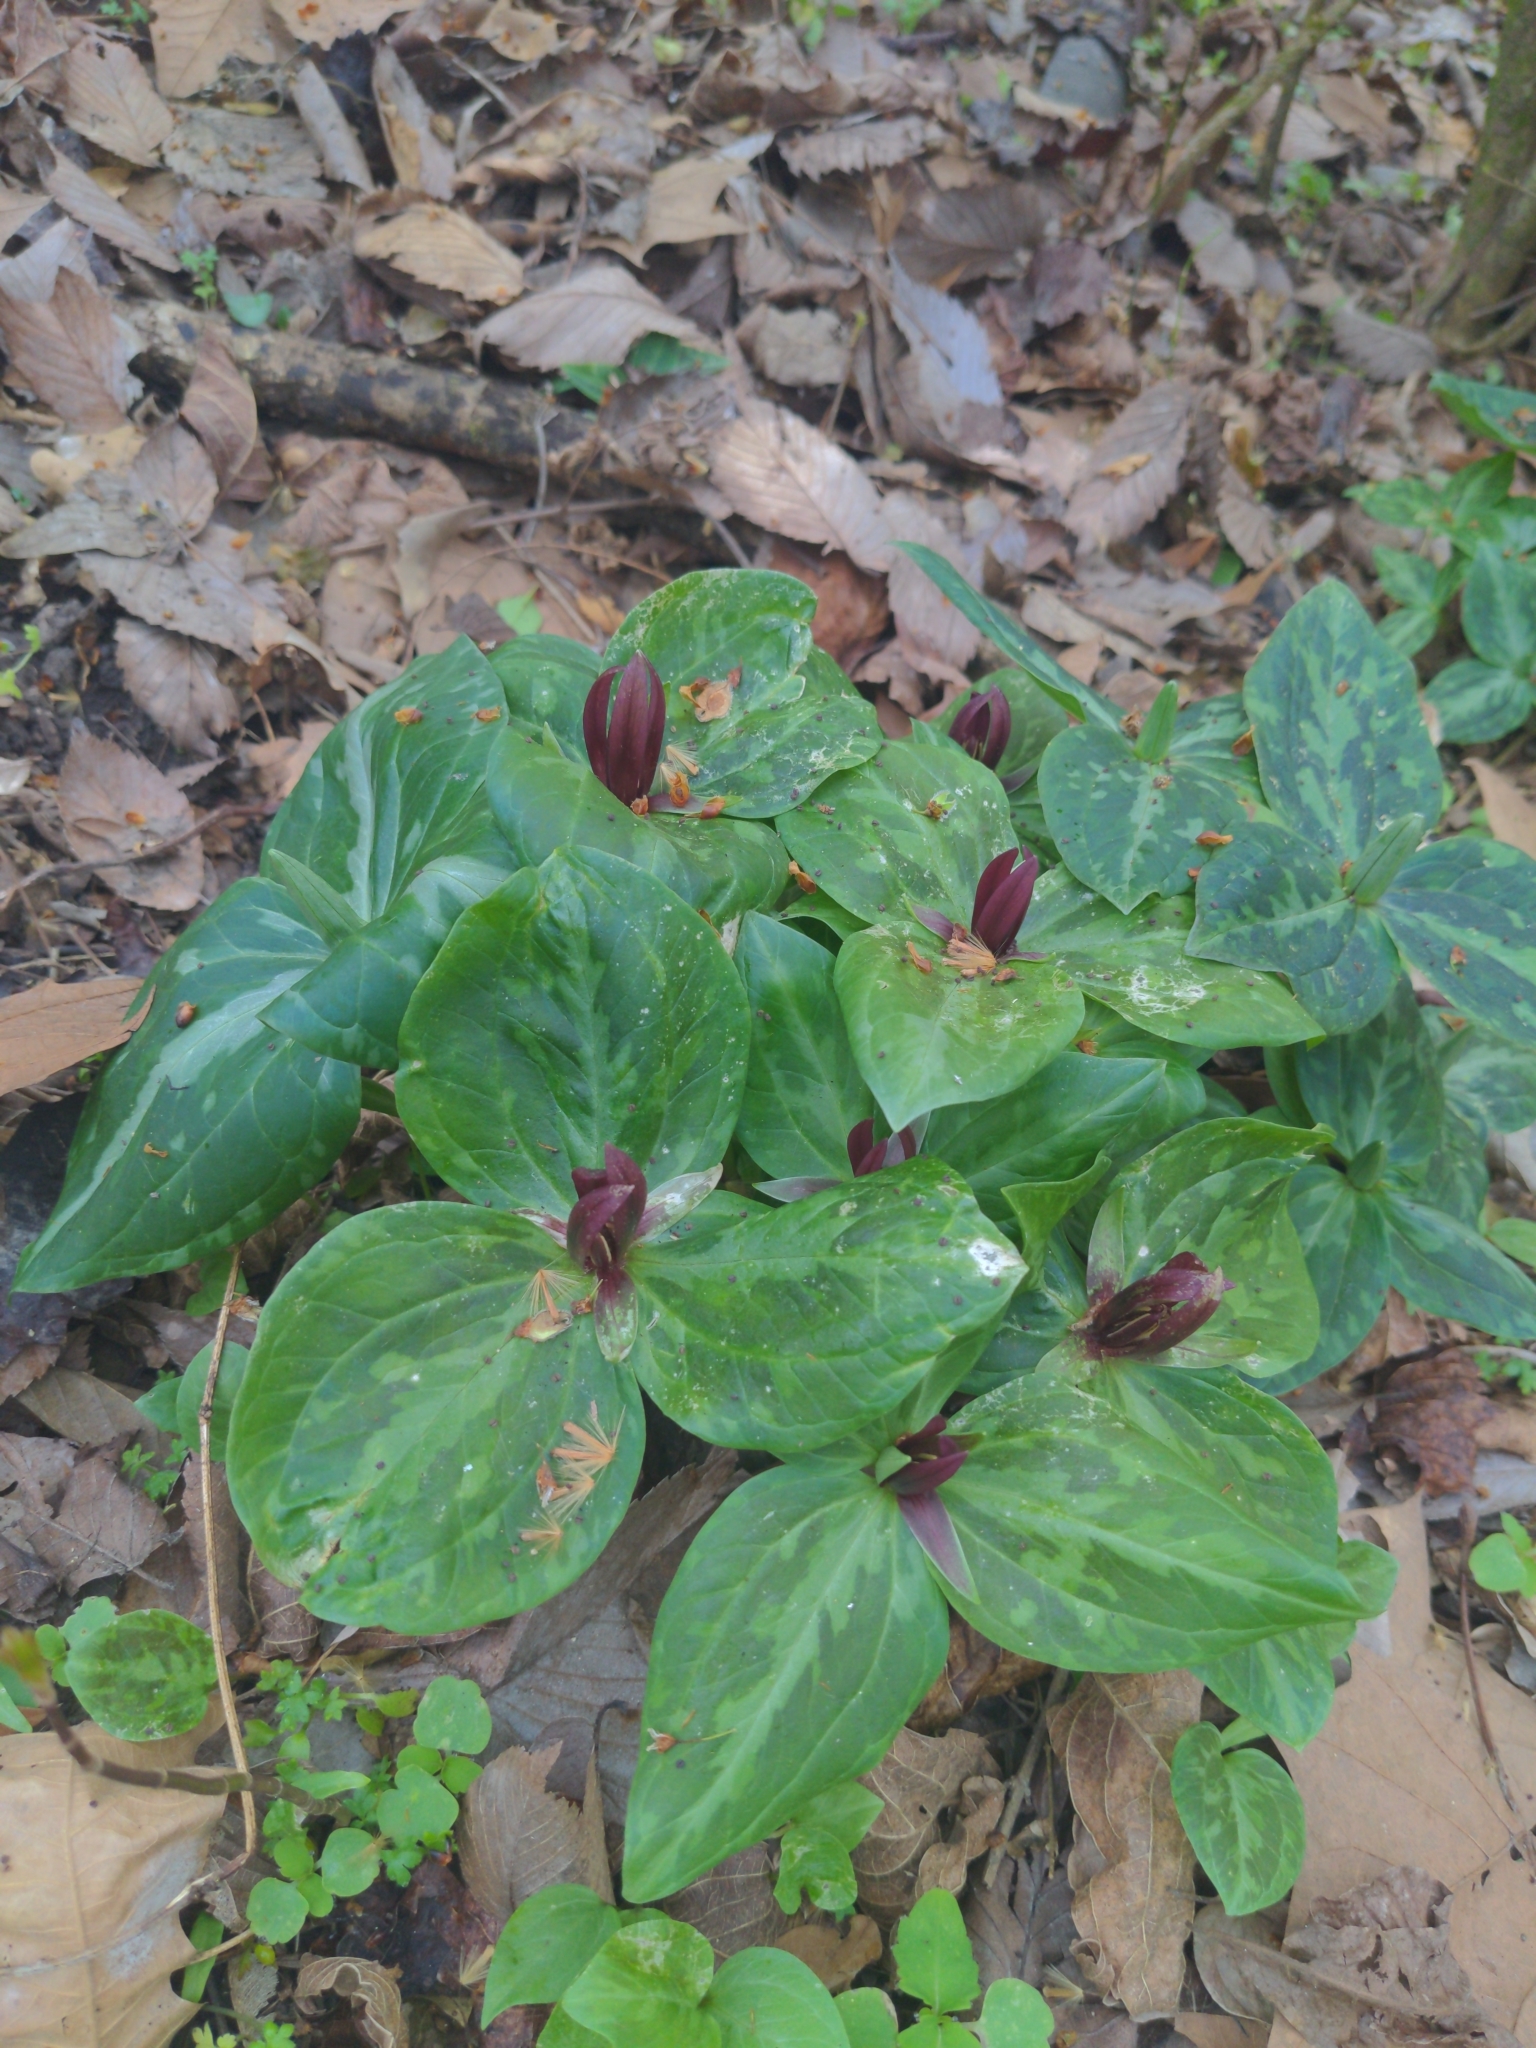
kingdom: Plantae
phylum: Tracheophyta
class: Liliopsida
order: Liliales
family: Melanthiaceae
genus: Trillium
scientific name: Trillium foetidissimum
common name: Mississippi river trillium
